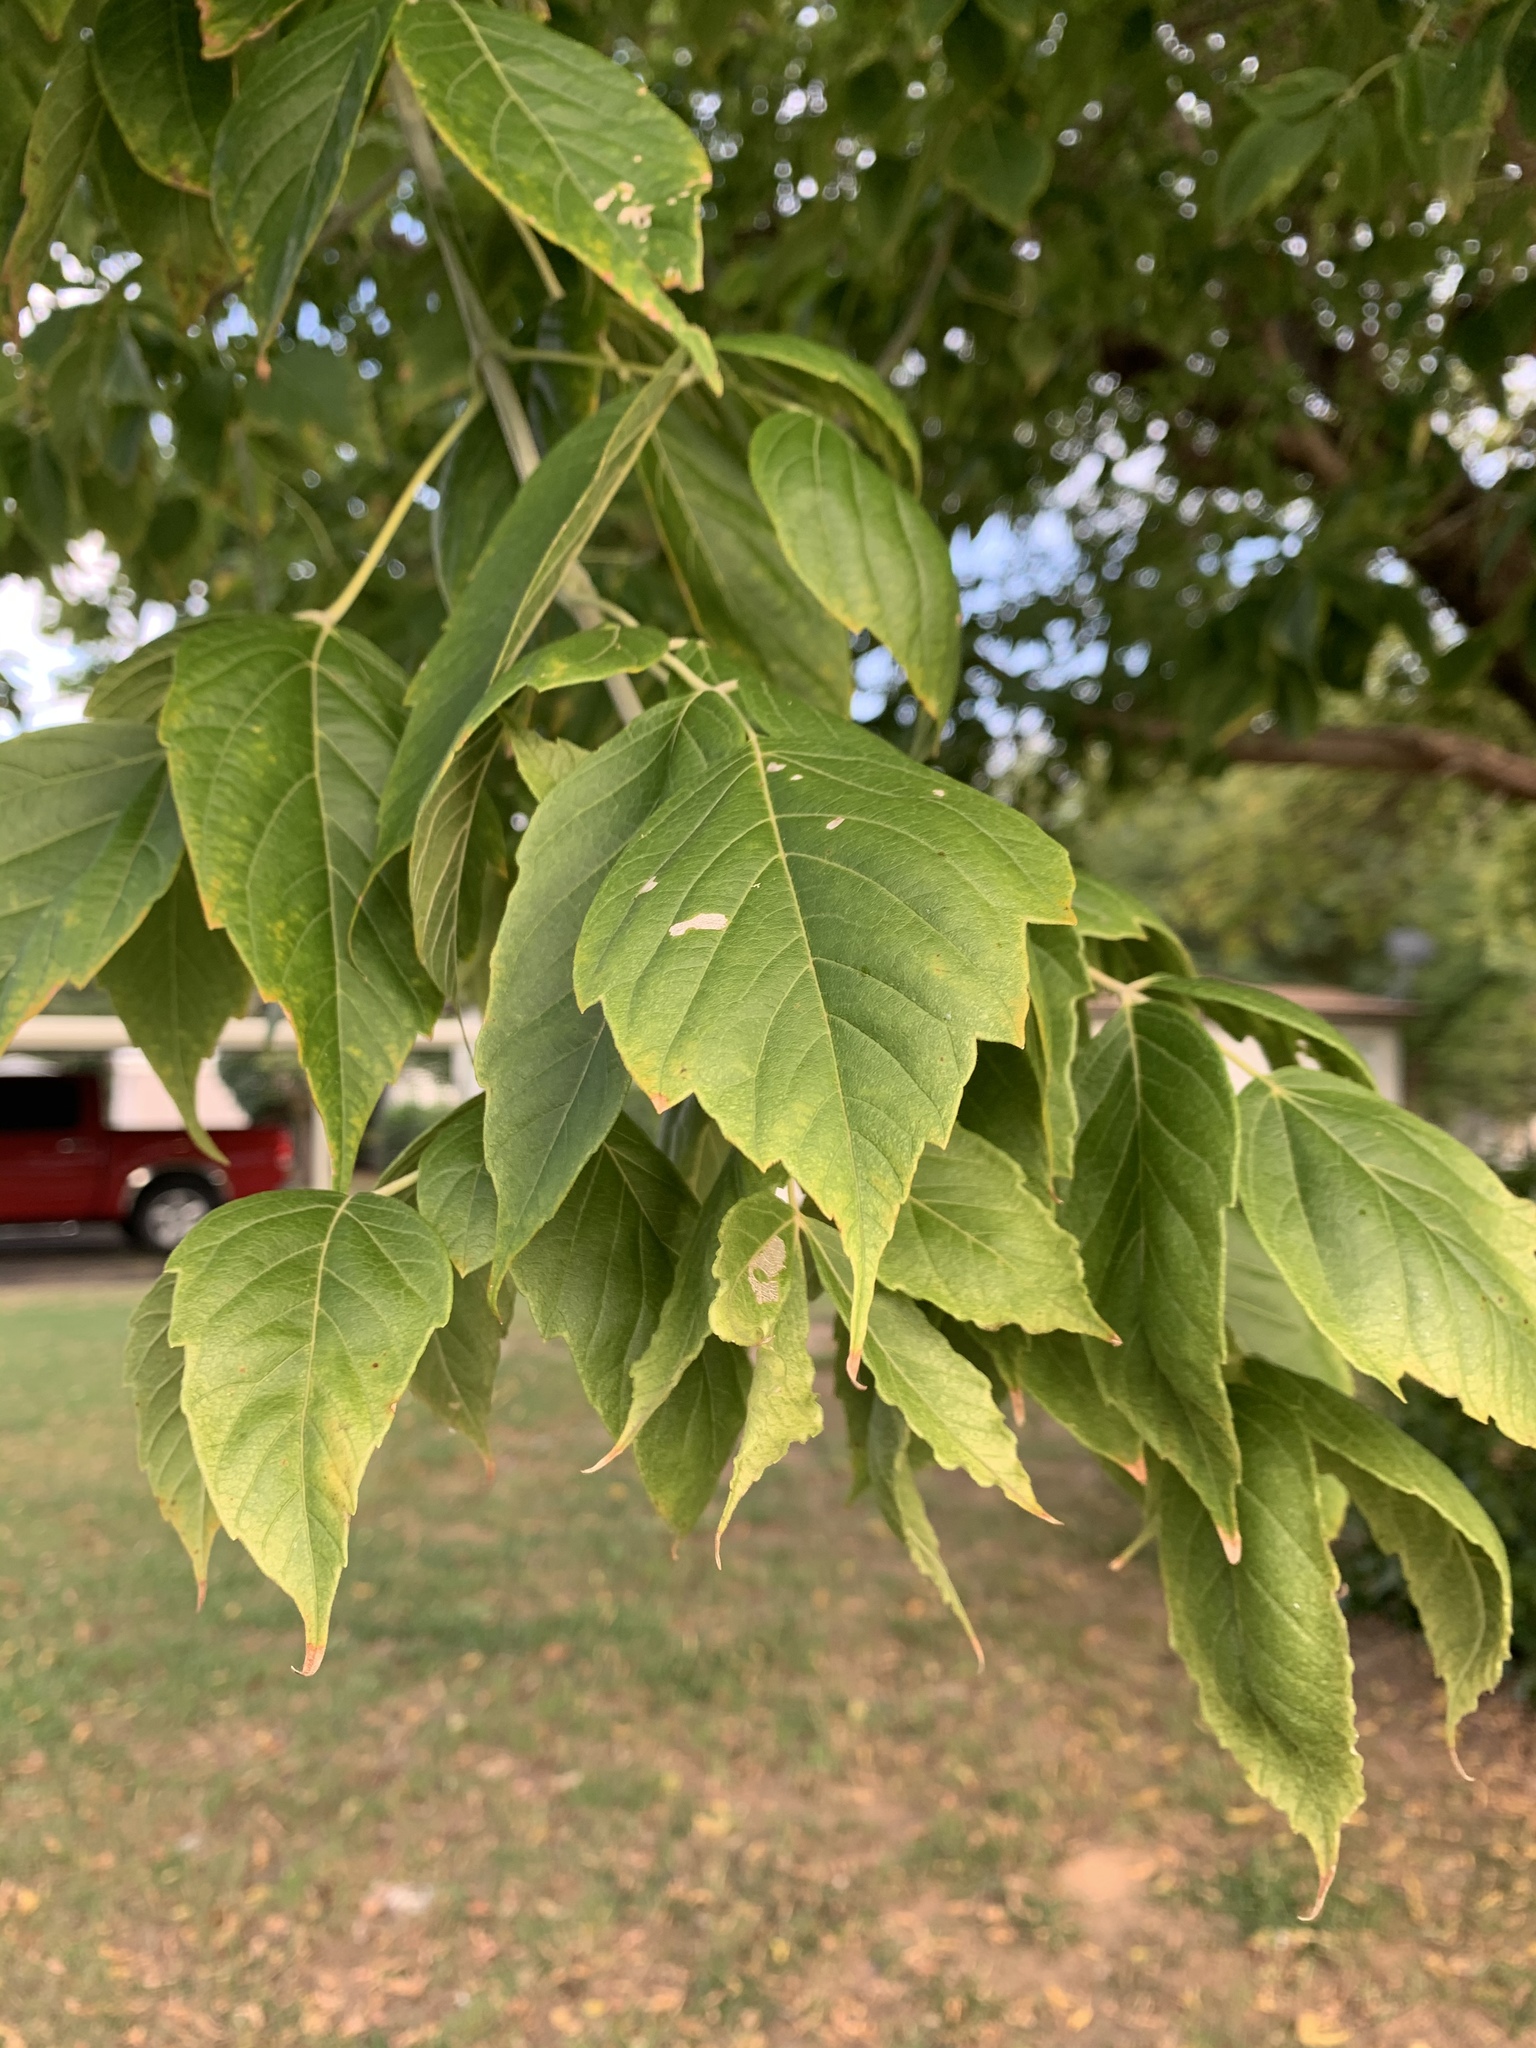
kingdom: Plantae
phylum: Tracheophyta
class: Magnoliopsida
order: Sapindales
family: Sapindaceae
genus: Acer
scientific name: Acer negundo
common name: Ashleaf maple
